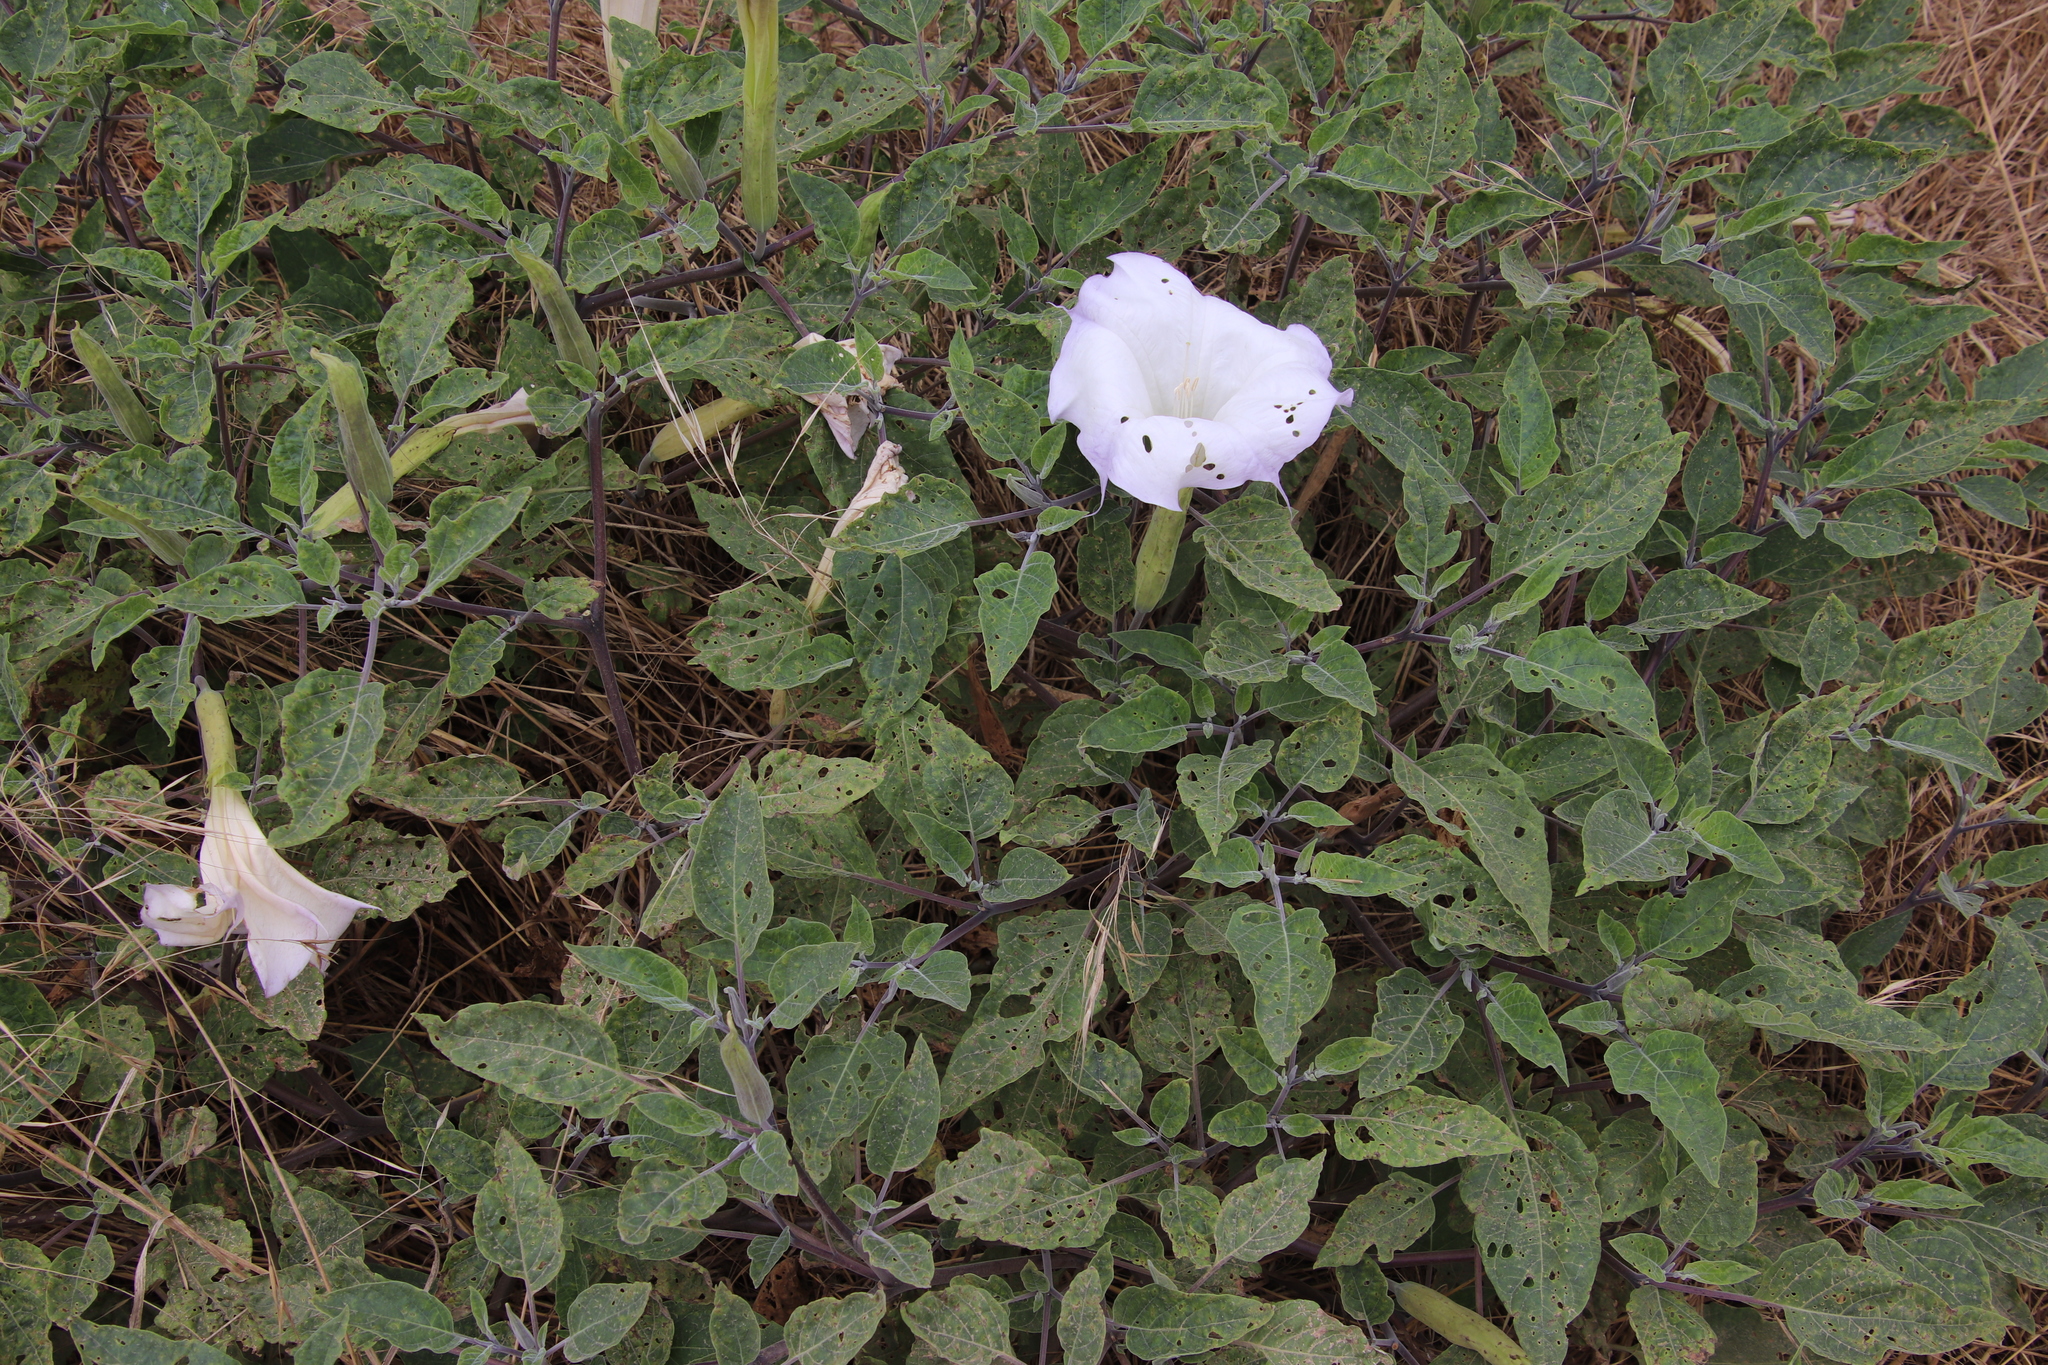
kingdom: Plantae
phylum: Tracheophyta
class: Magnoliopsida
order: Solanales
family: Solanaceae
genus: Datura
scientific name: Datura wrightii
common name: Sacred thorn-apple
